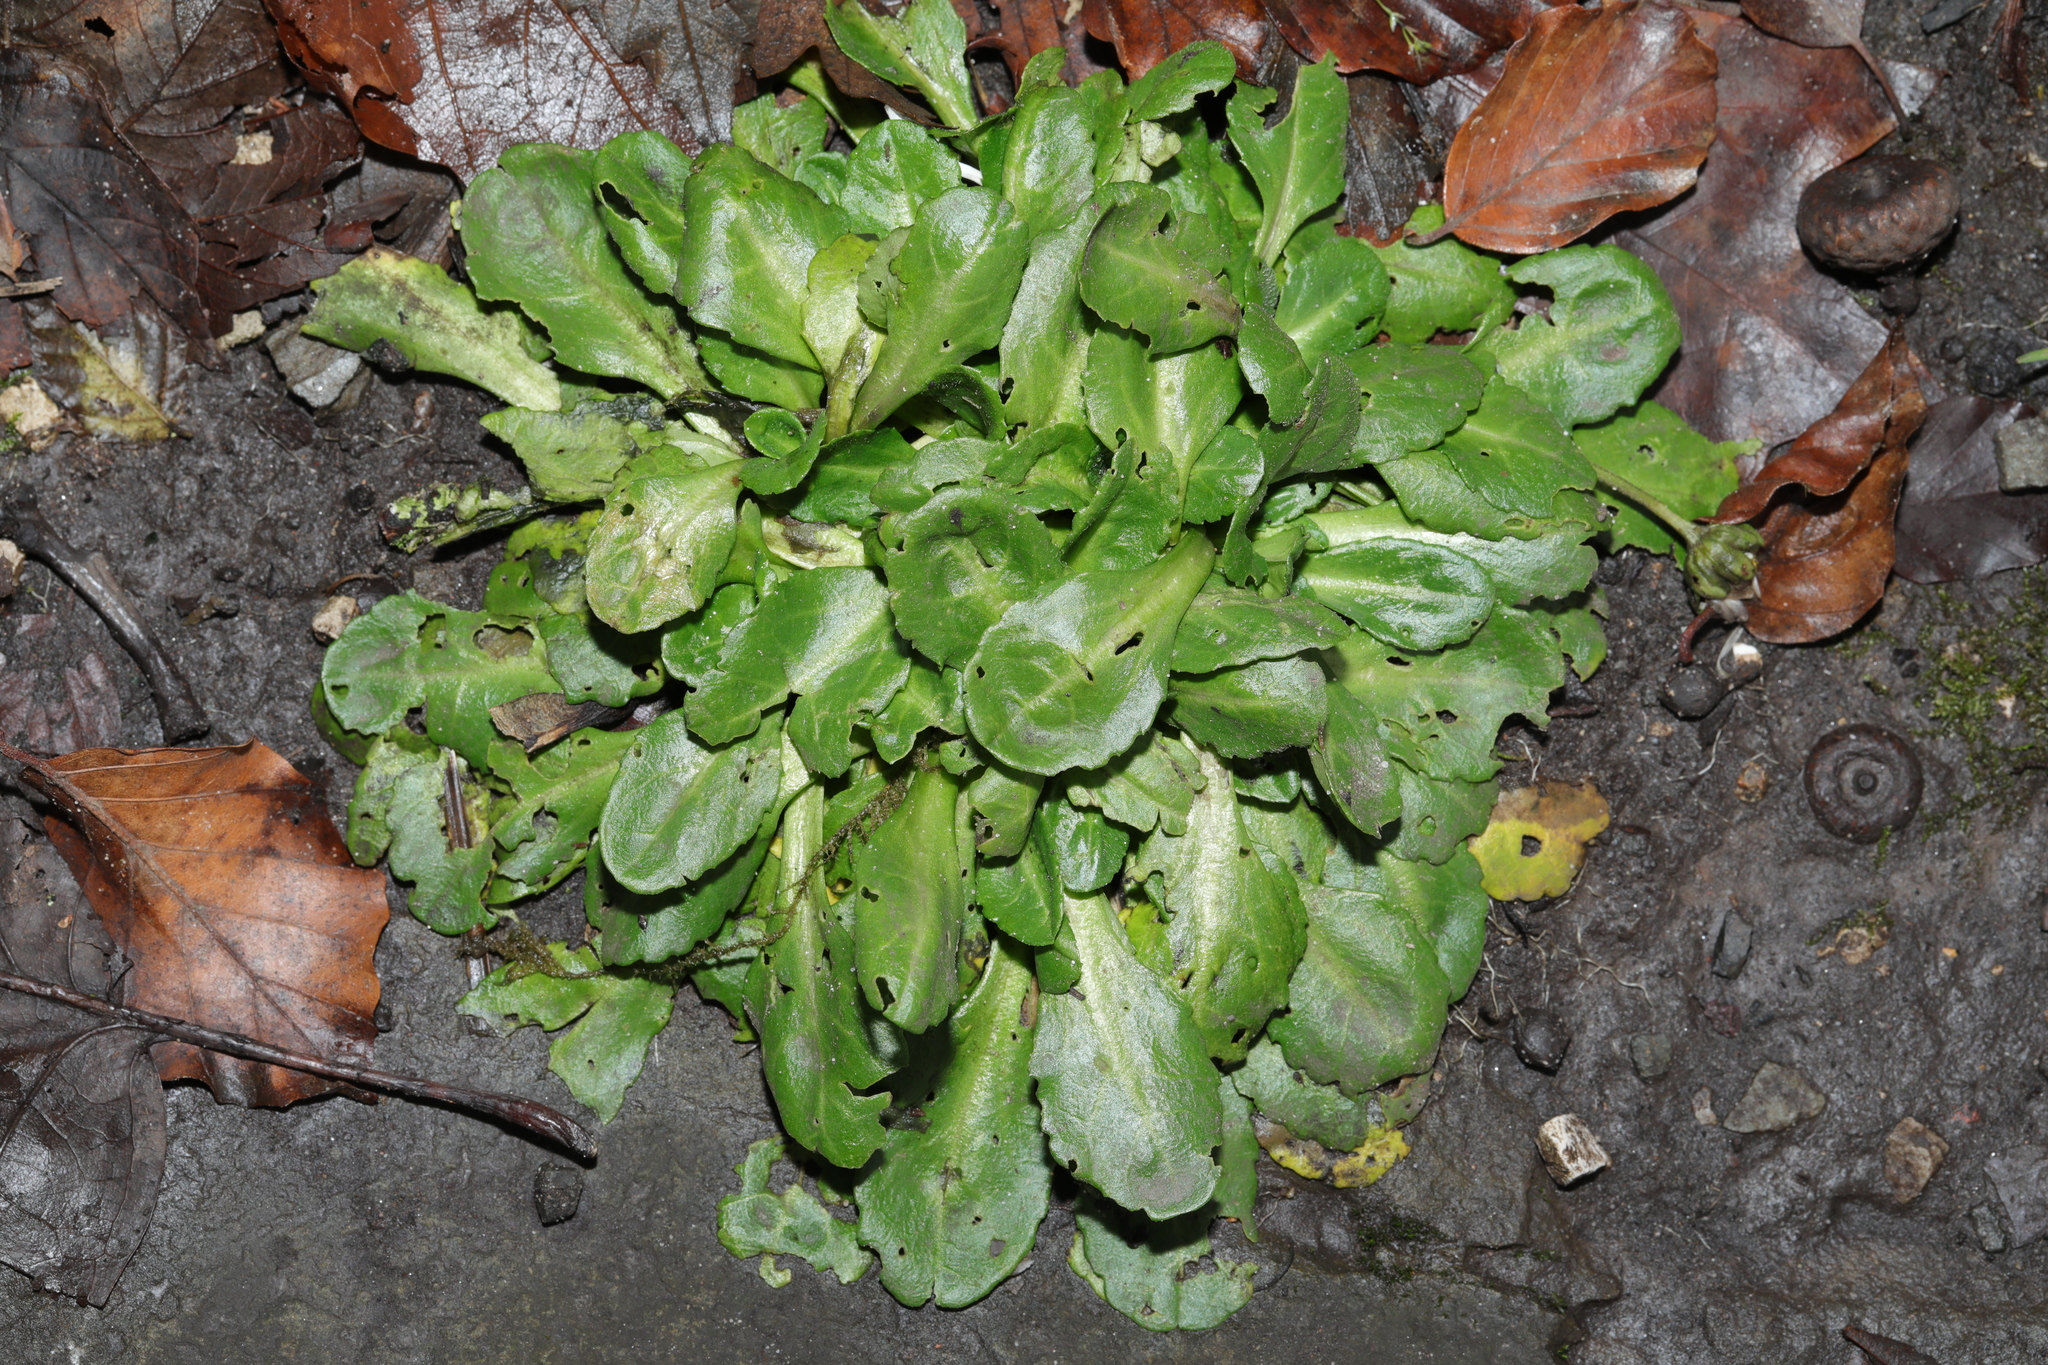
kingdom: Plantae
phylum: Tracheophyta
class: Magnoliopsida
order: Asterales
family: Asteraceae
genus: Bellis
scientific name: Bellis perennis
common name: Lawndaisy
